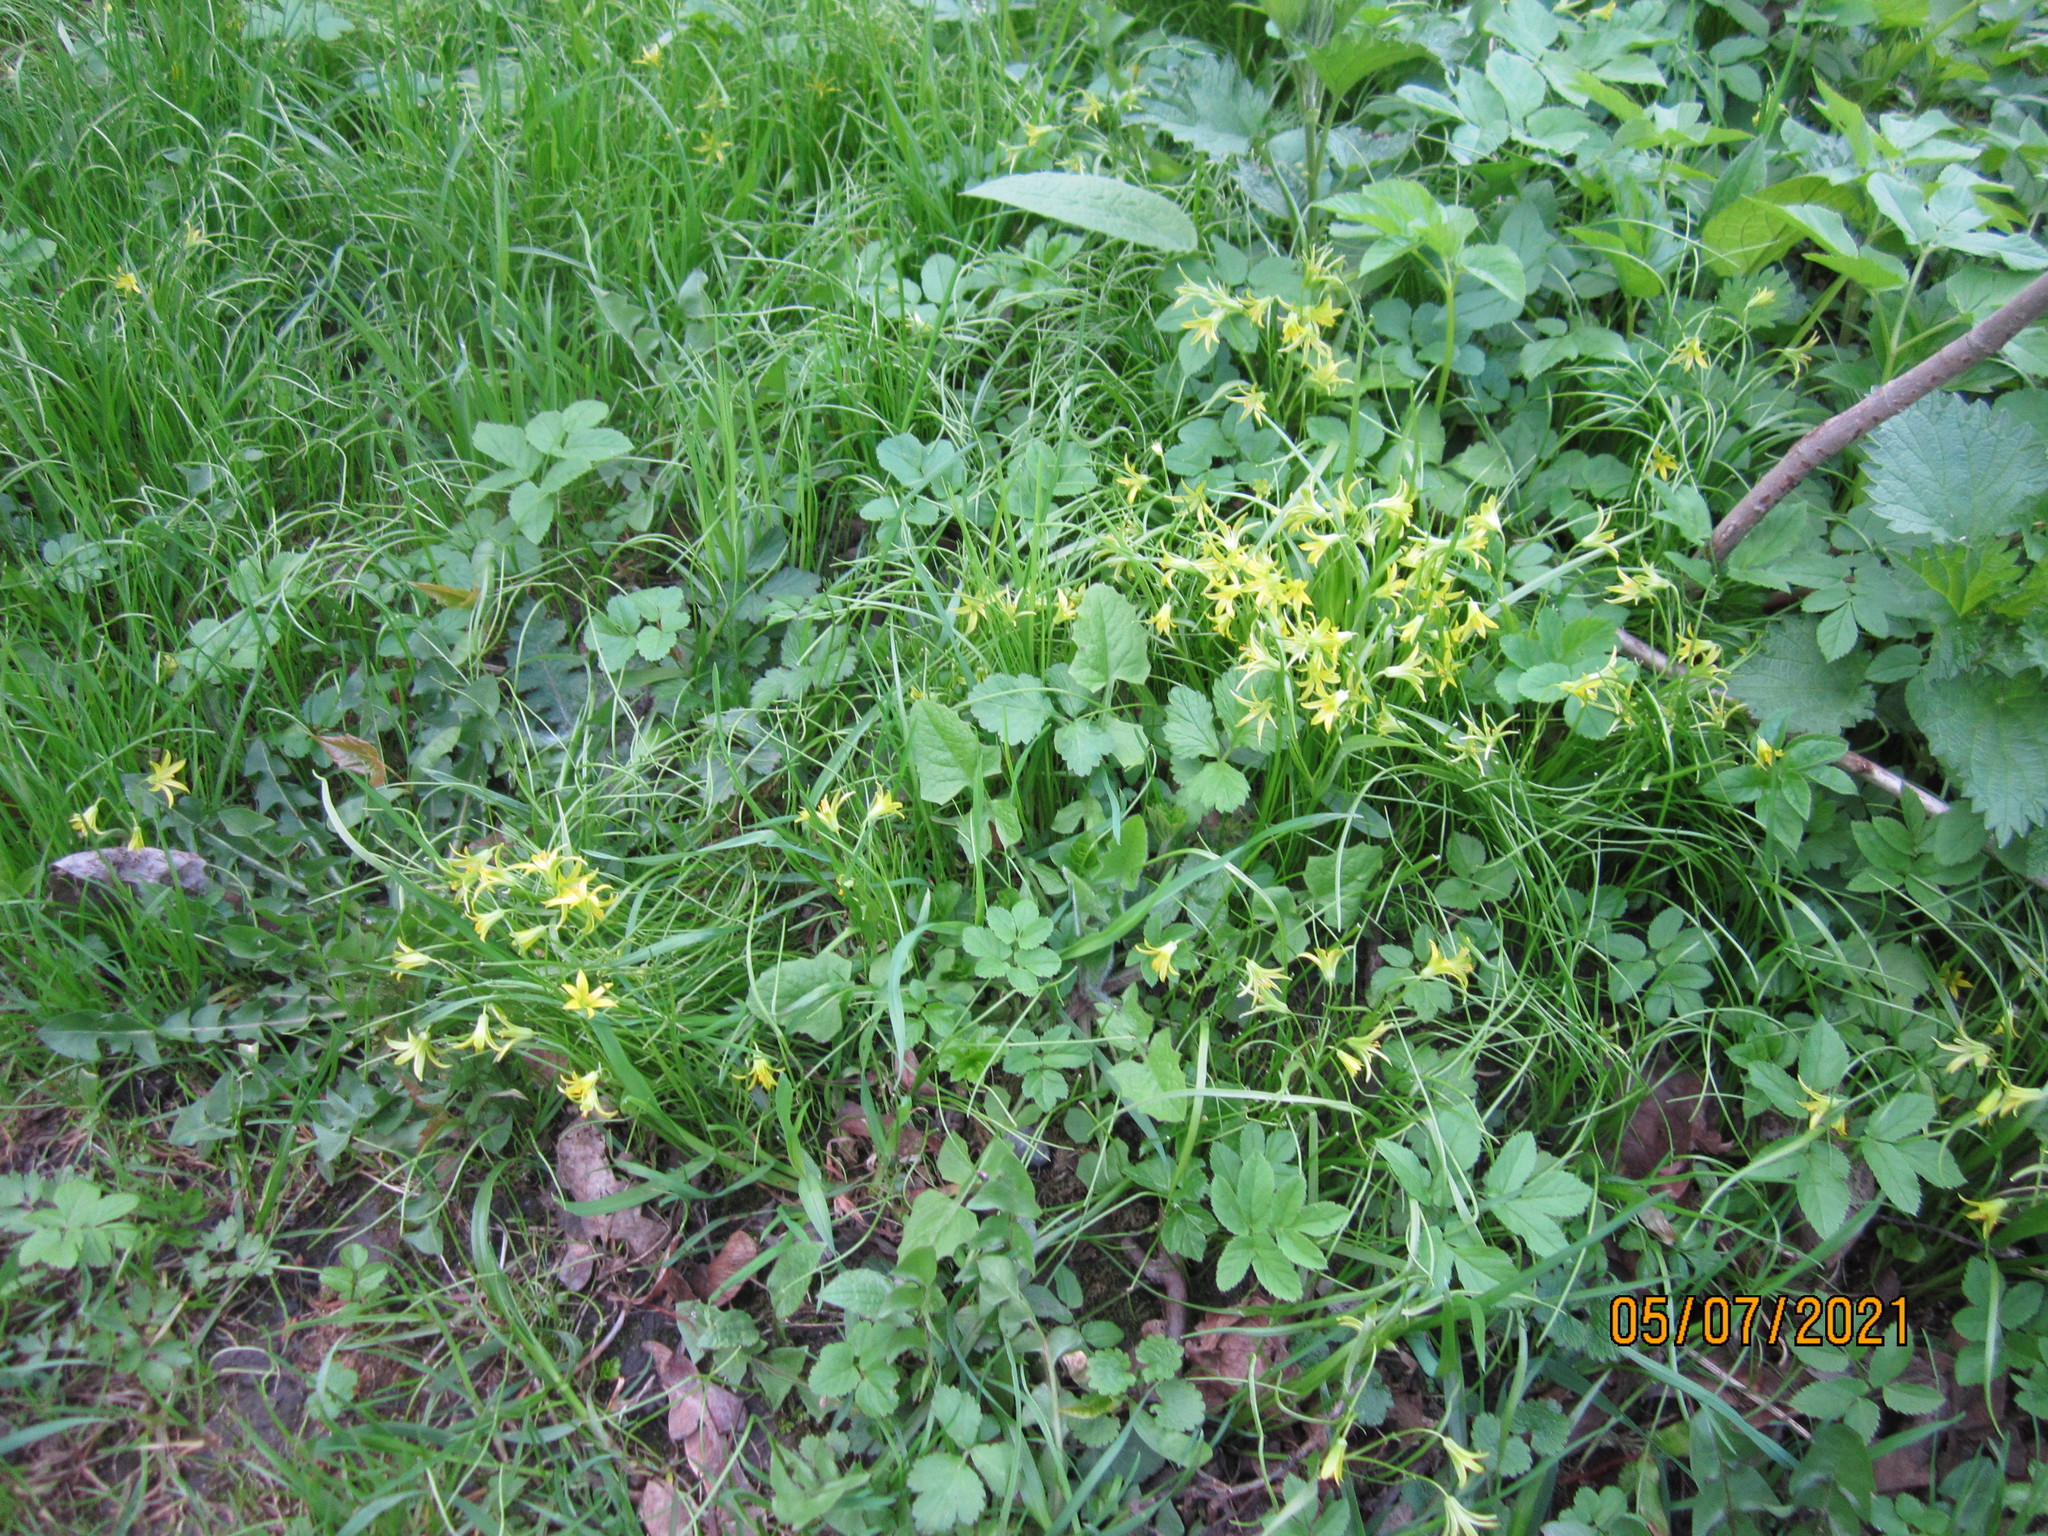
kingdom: Plantae
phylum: Tracheophyta
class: Liliopsida
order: Liliales
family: Liliaceae
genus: Gagea
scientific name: Gagea minima
